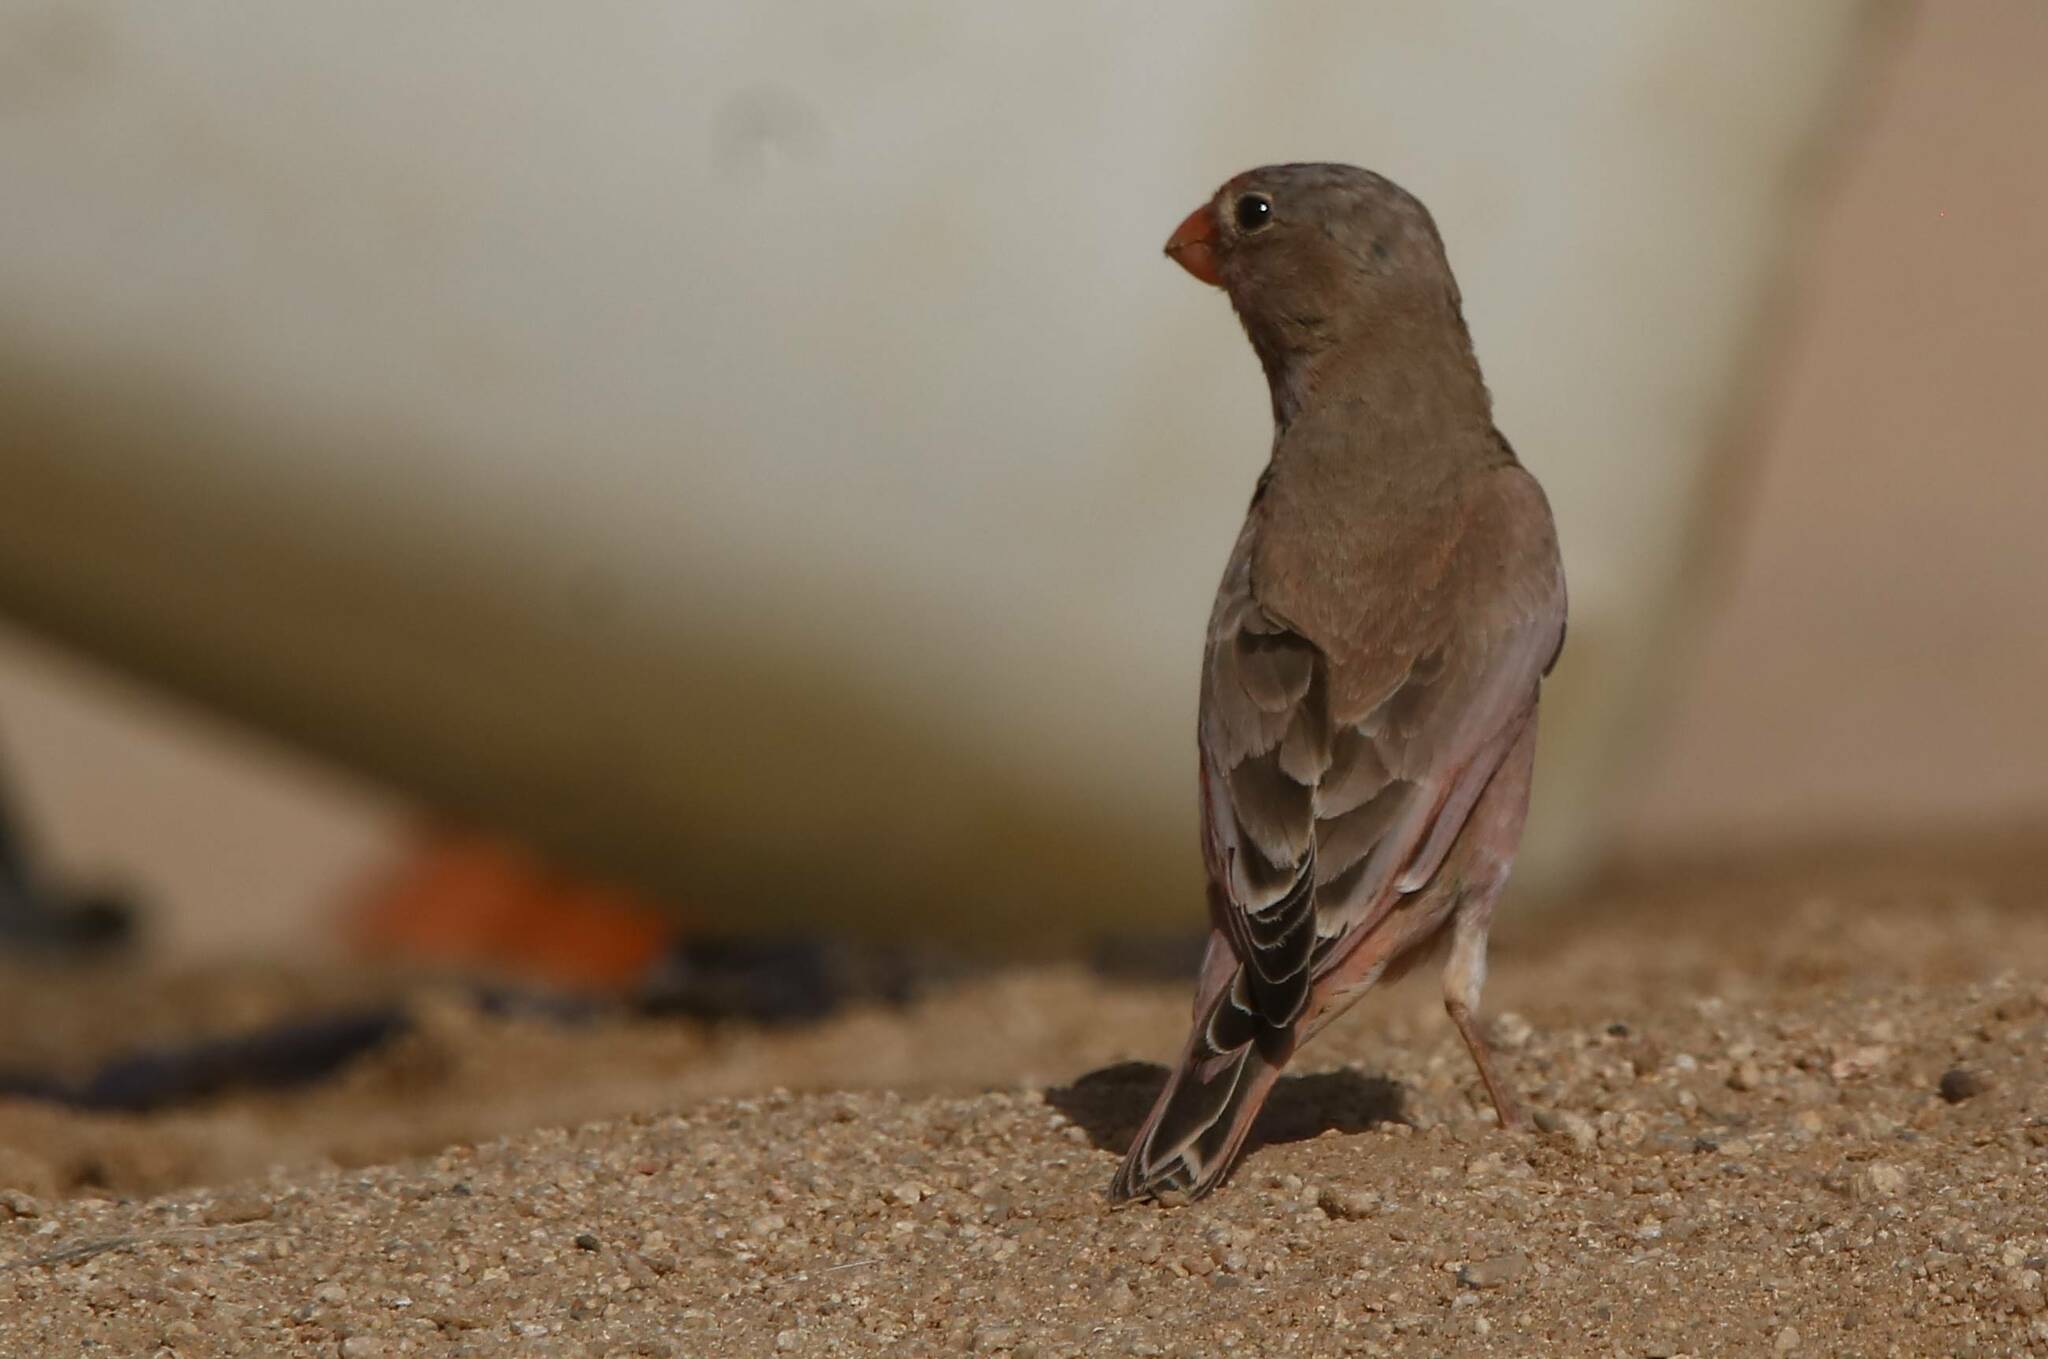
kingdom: Animalia
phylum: Chordata
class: Aves
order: Passeriformes
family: Fringillidae
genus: Bucanetes
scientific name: Bucanetes githagineus
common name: Trumpeter finch
